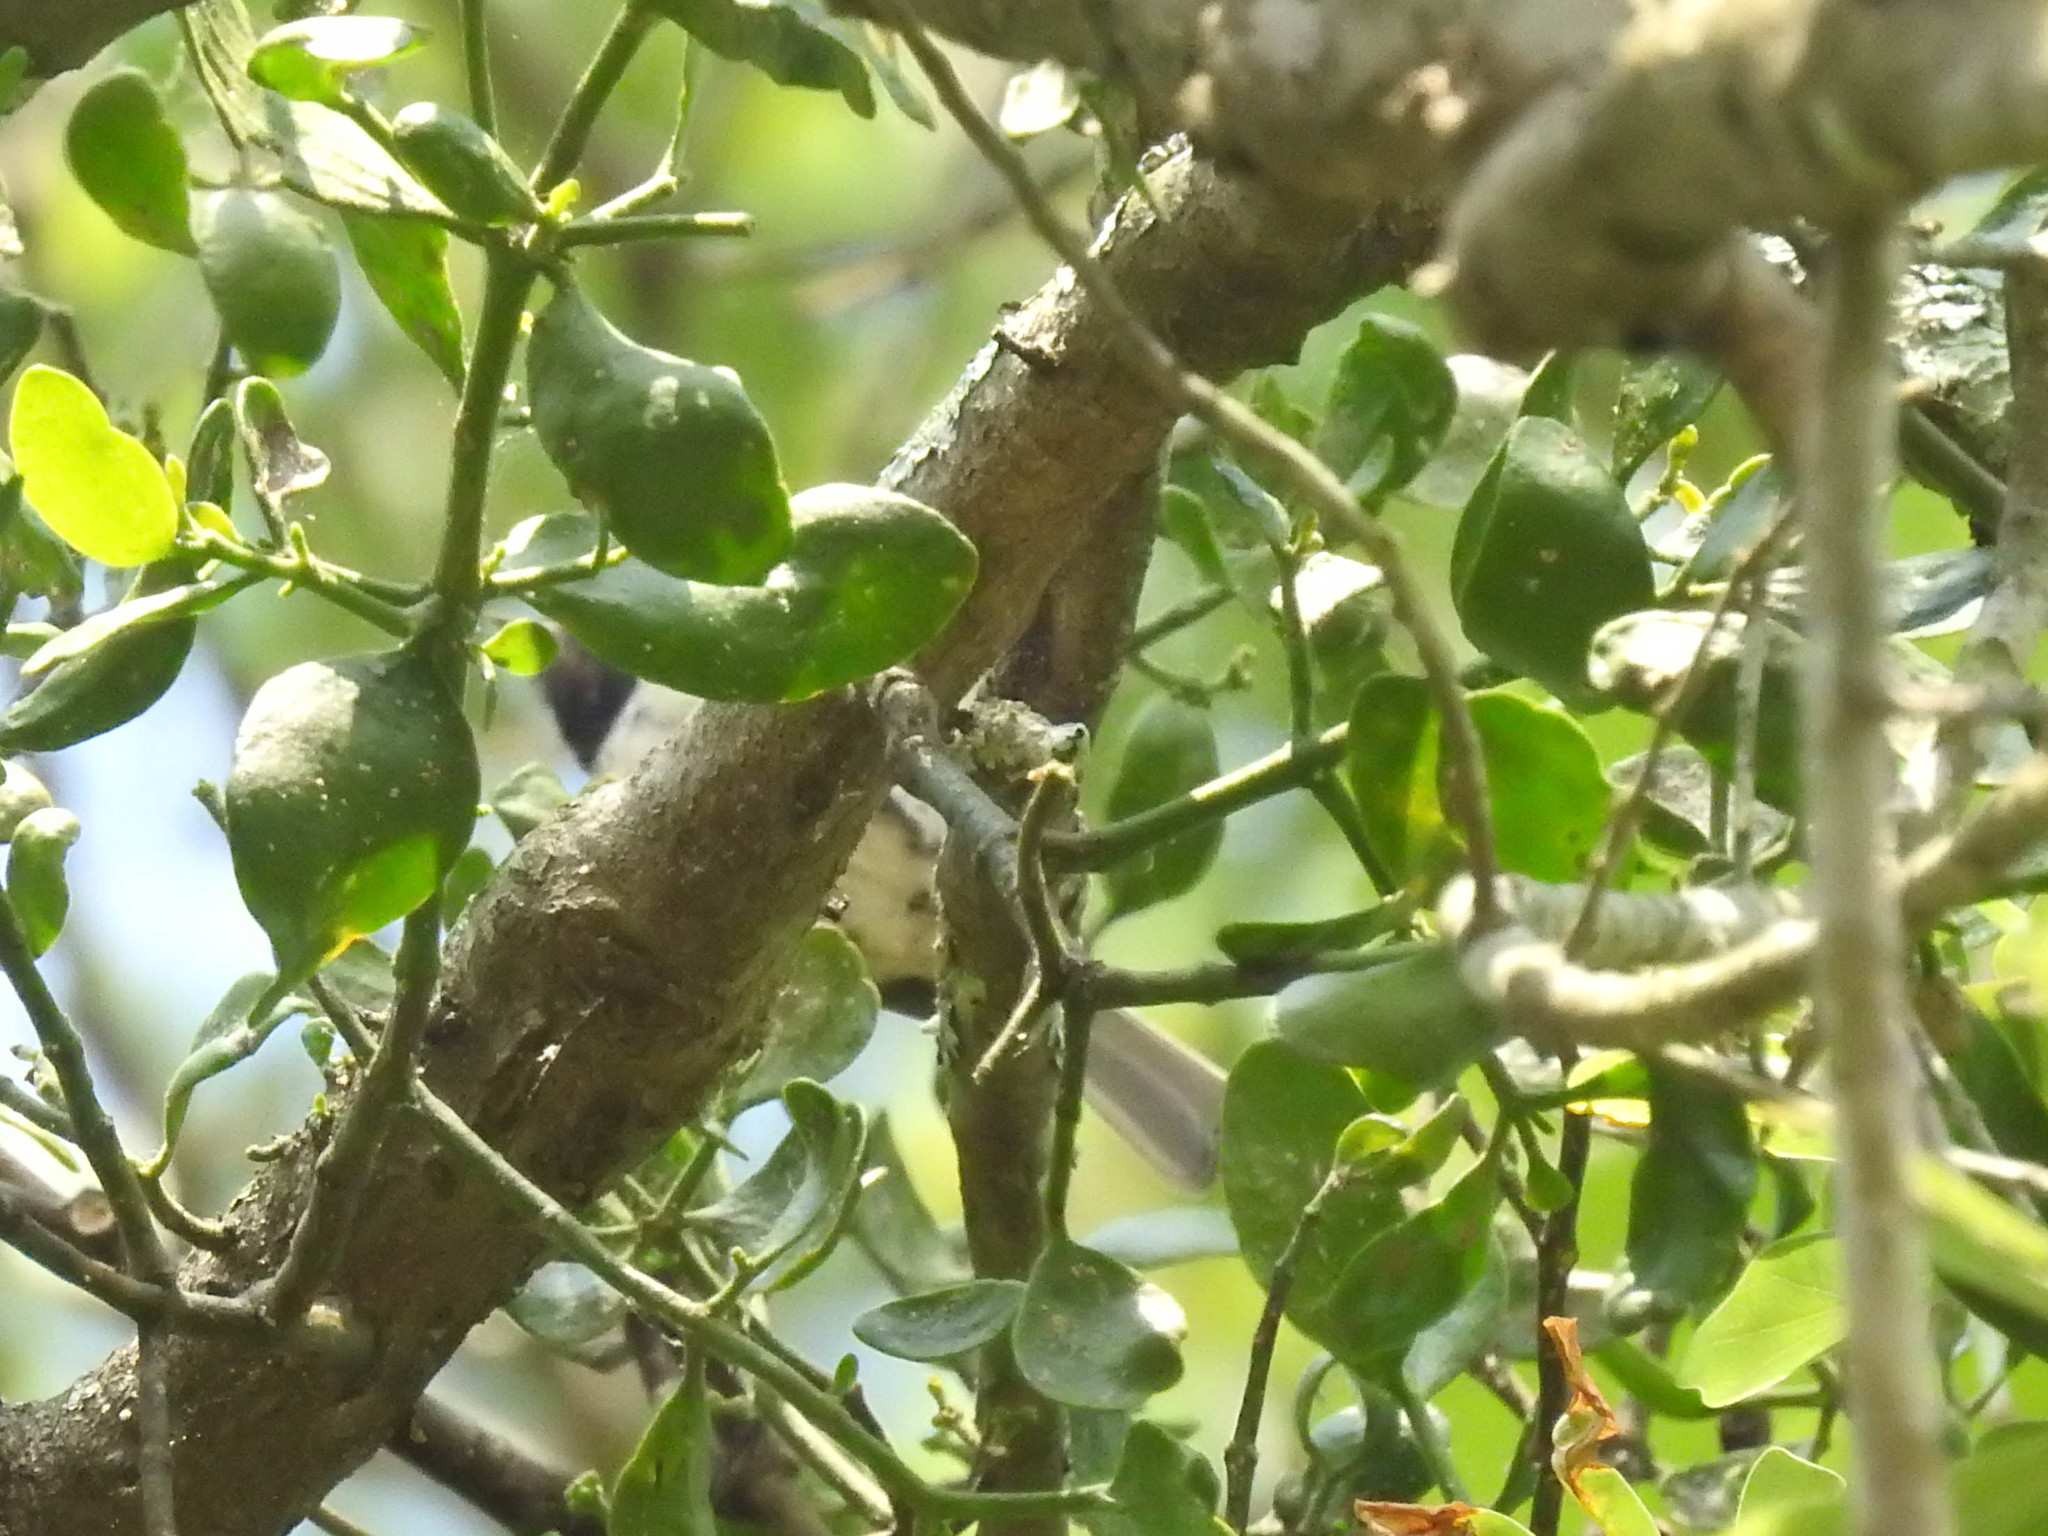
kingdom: Animalia
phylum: Chordata
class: Aves
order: Passeriformes
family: Passerellidae
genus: Pipilo
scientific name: Pipilo erythrophthalmus
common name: Eastern towhee
